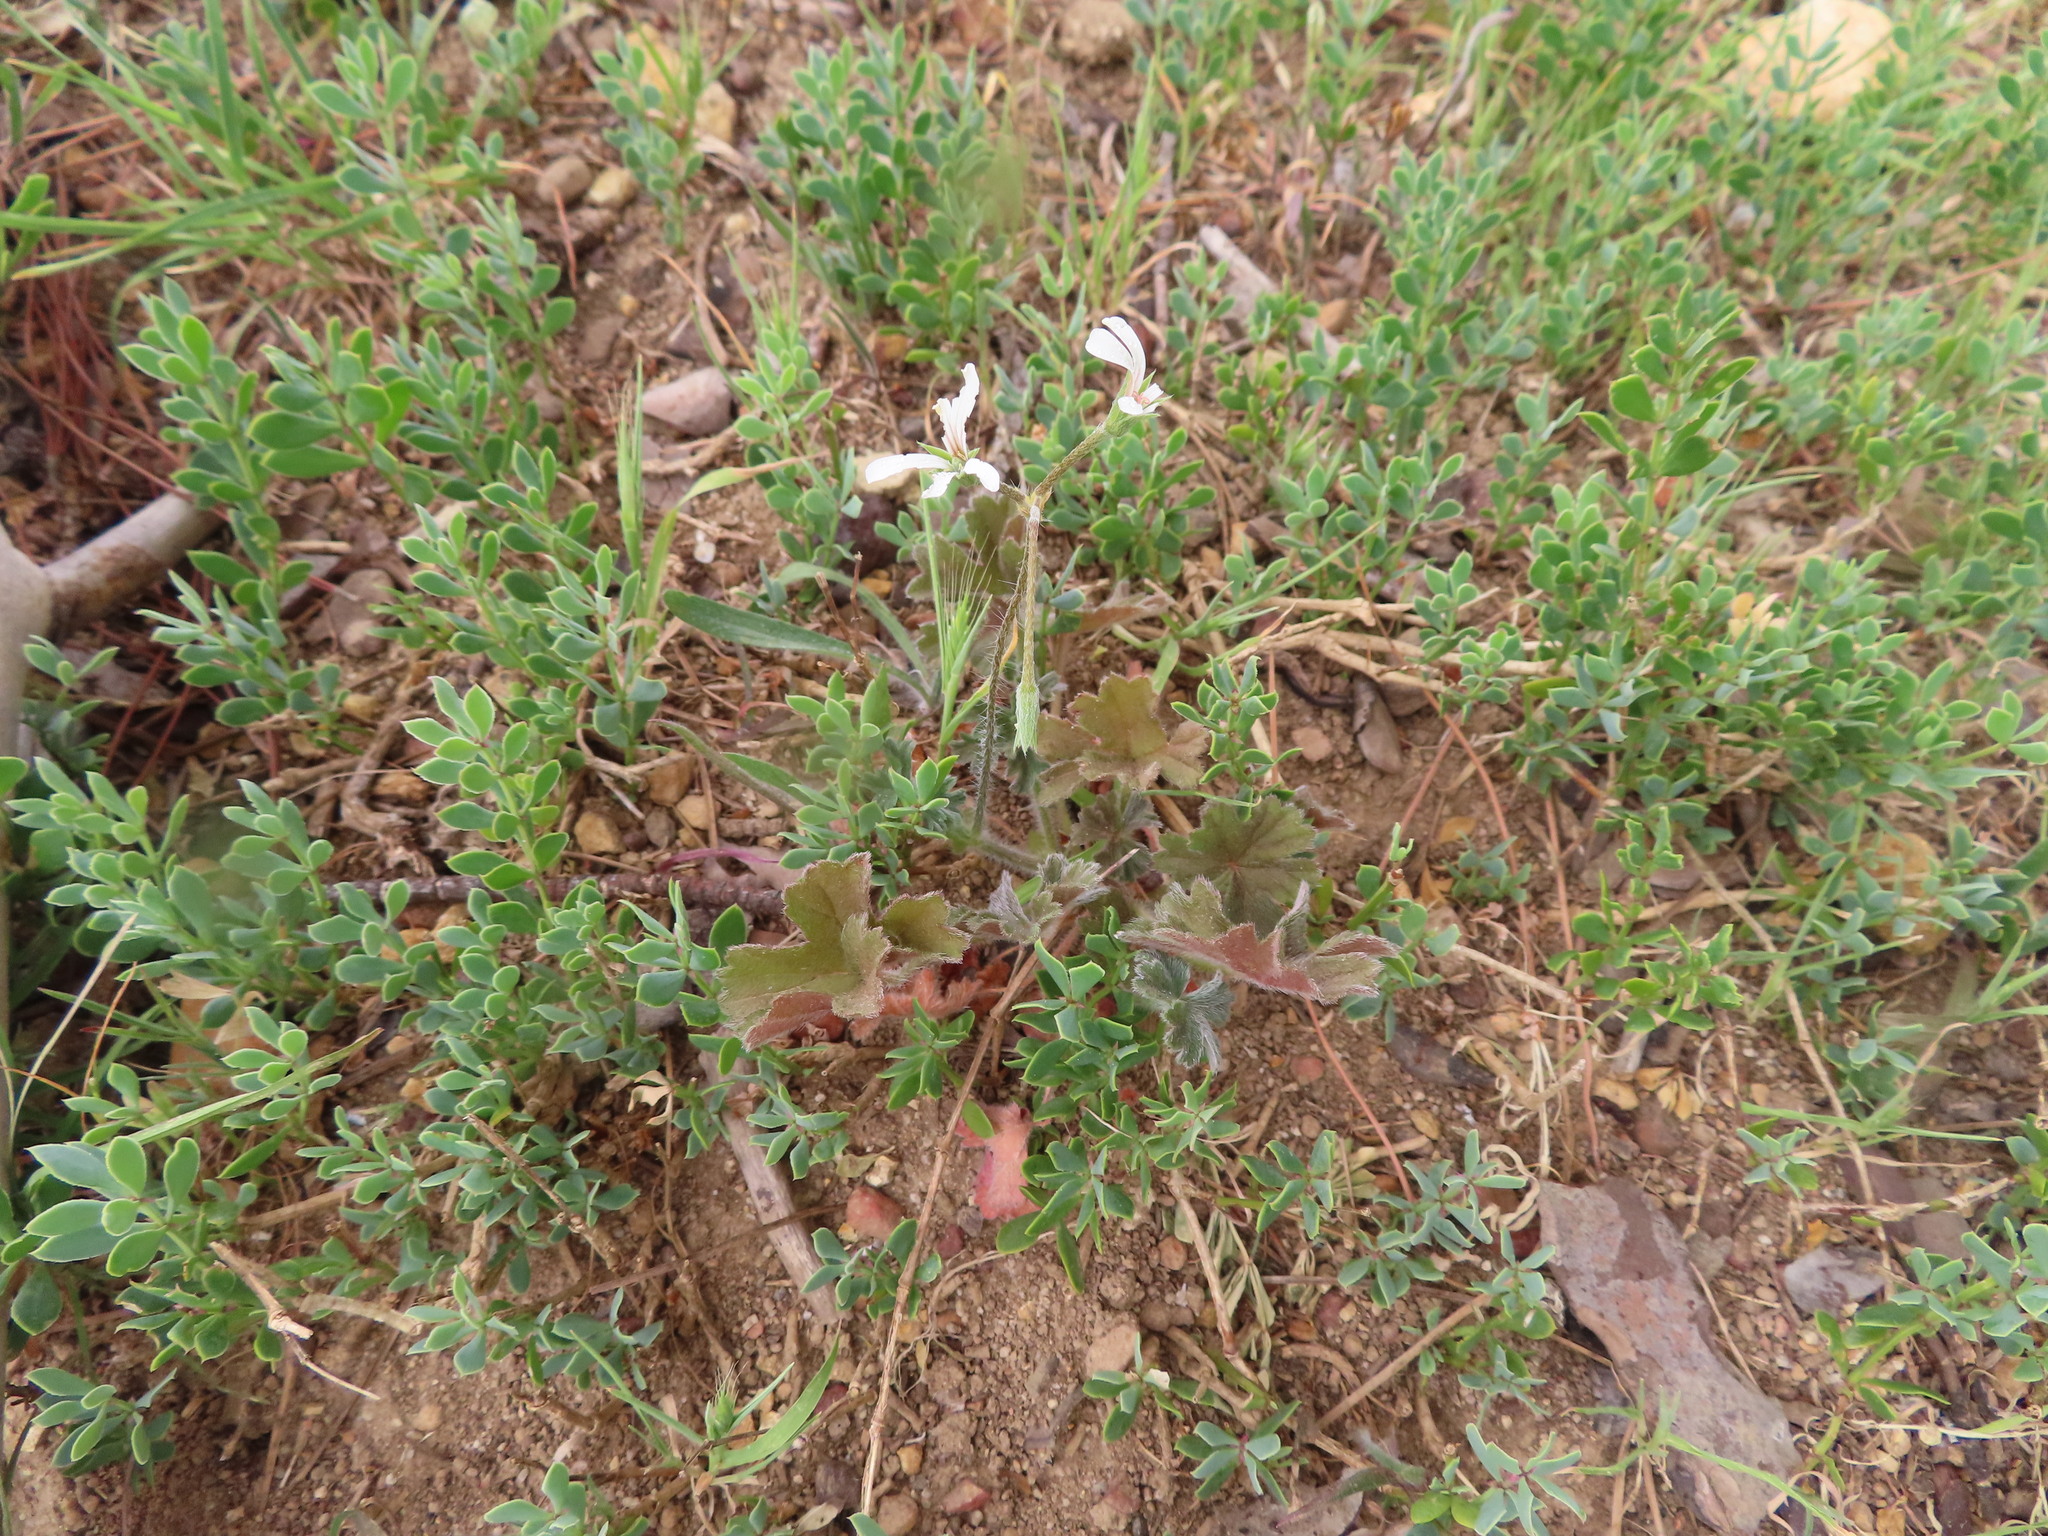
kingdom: Plantae
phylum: Tracheophyta
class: Magnoliopsida
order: Geraniales
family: Geraniaceae
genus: Pelargonium
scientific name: Pelargonium alchemilloides
